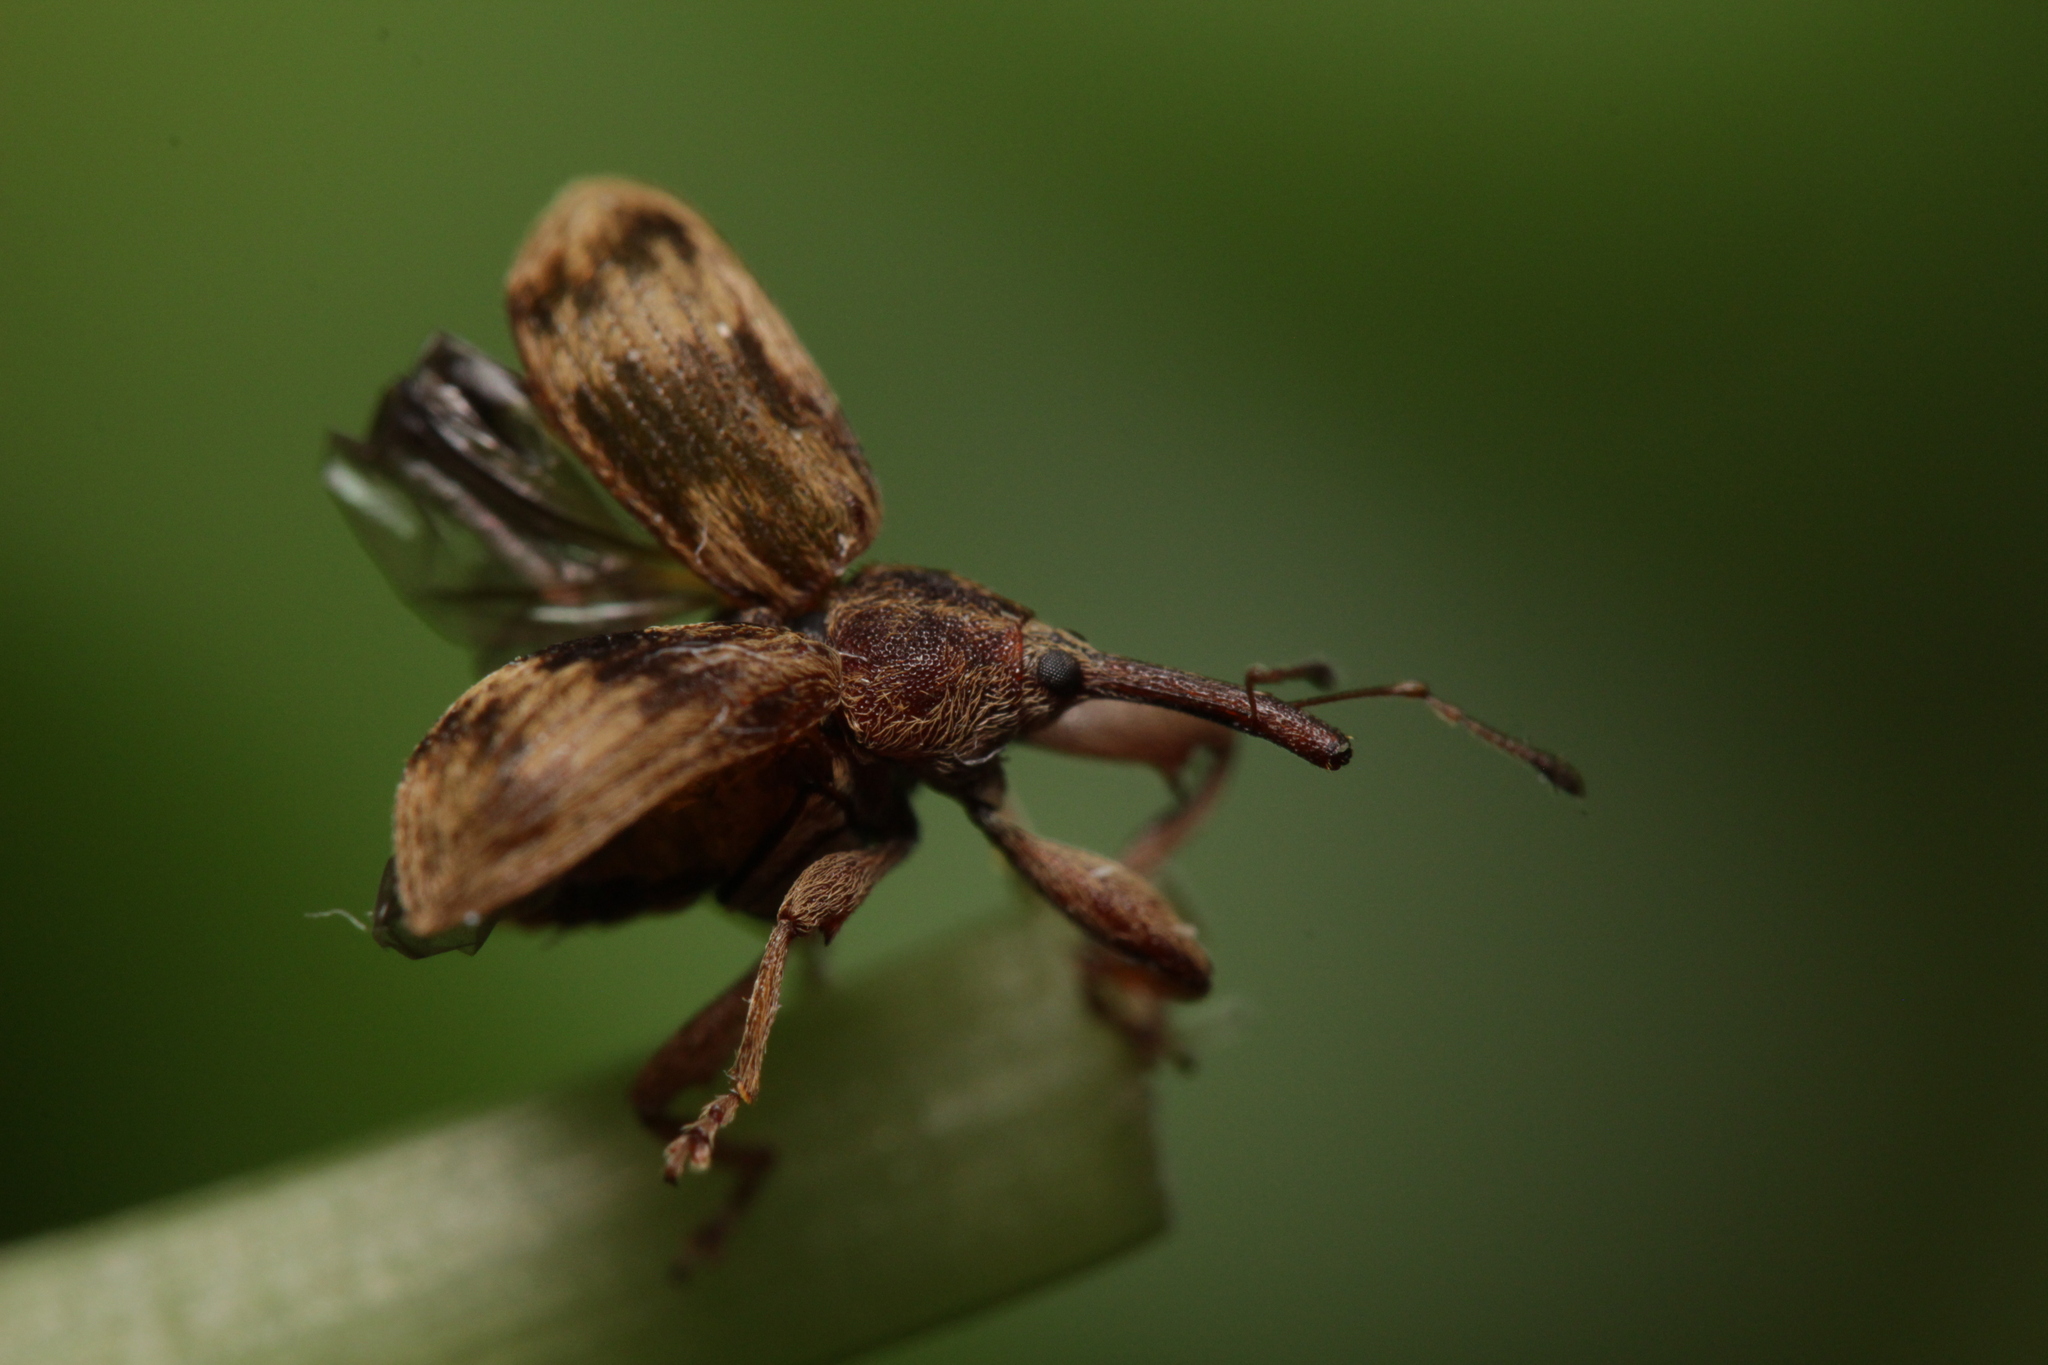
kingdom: Animalia
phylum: Arthropoda
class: Insecta
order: Coleoptera
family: Curculionidae
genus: Anthonomus
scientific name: Anthonomus rectirostris
